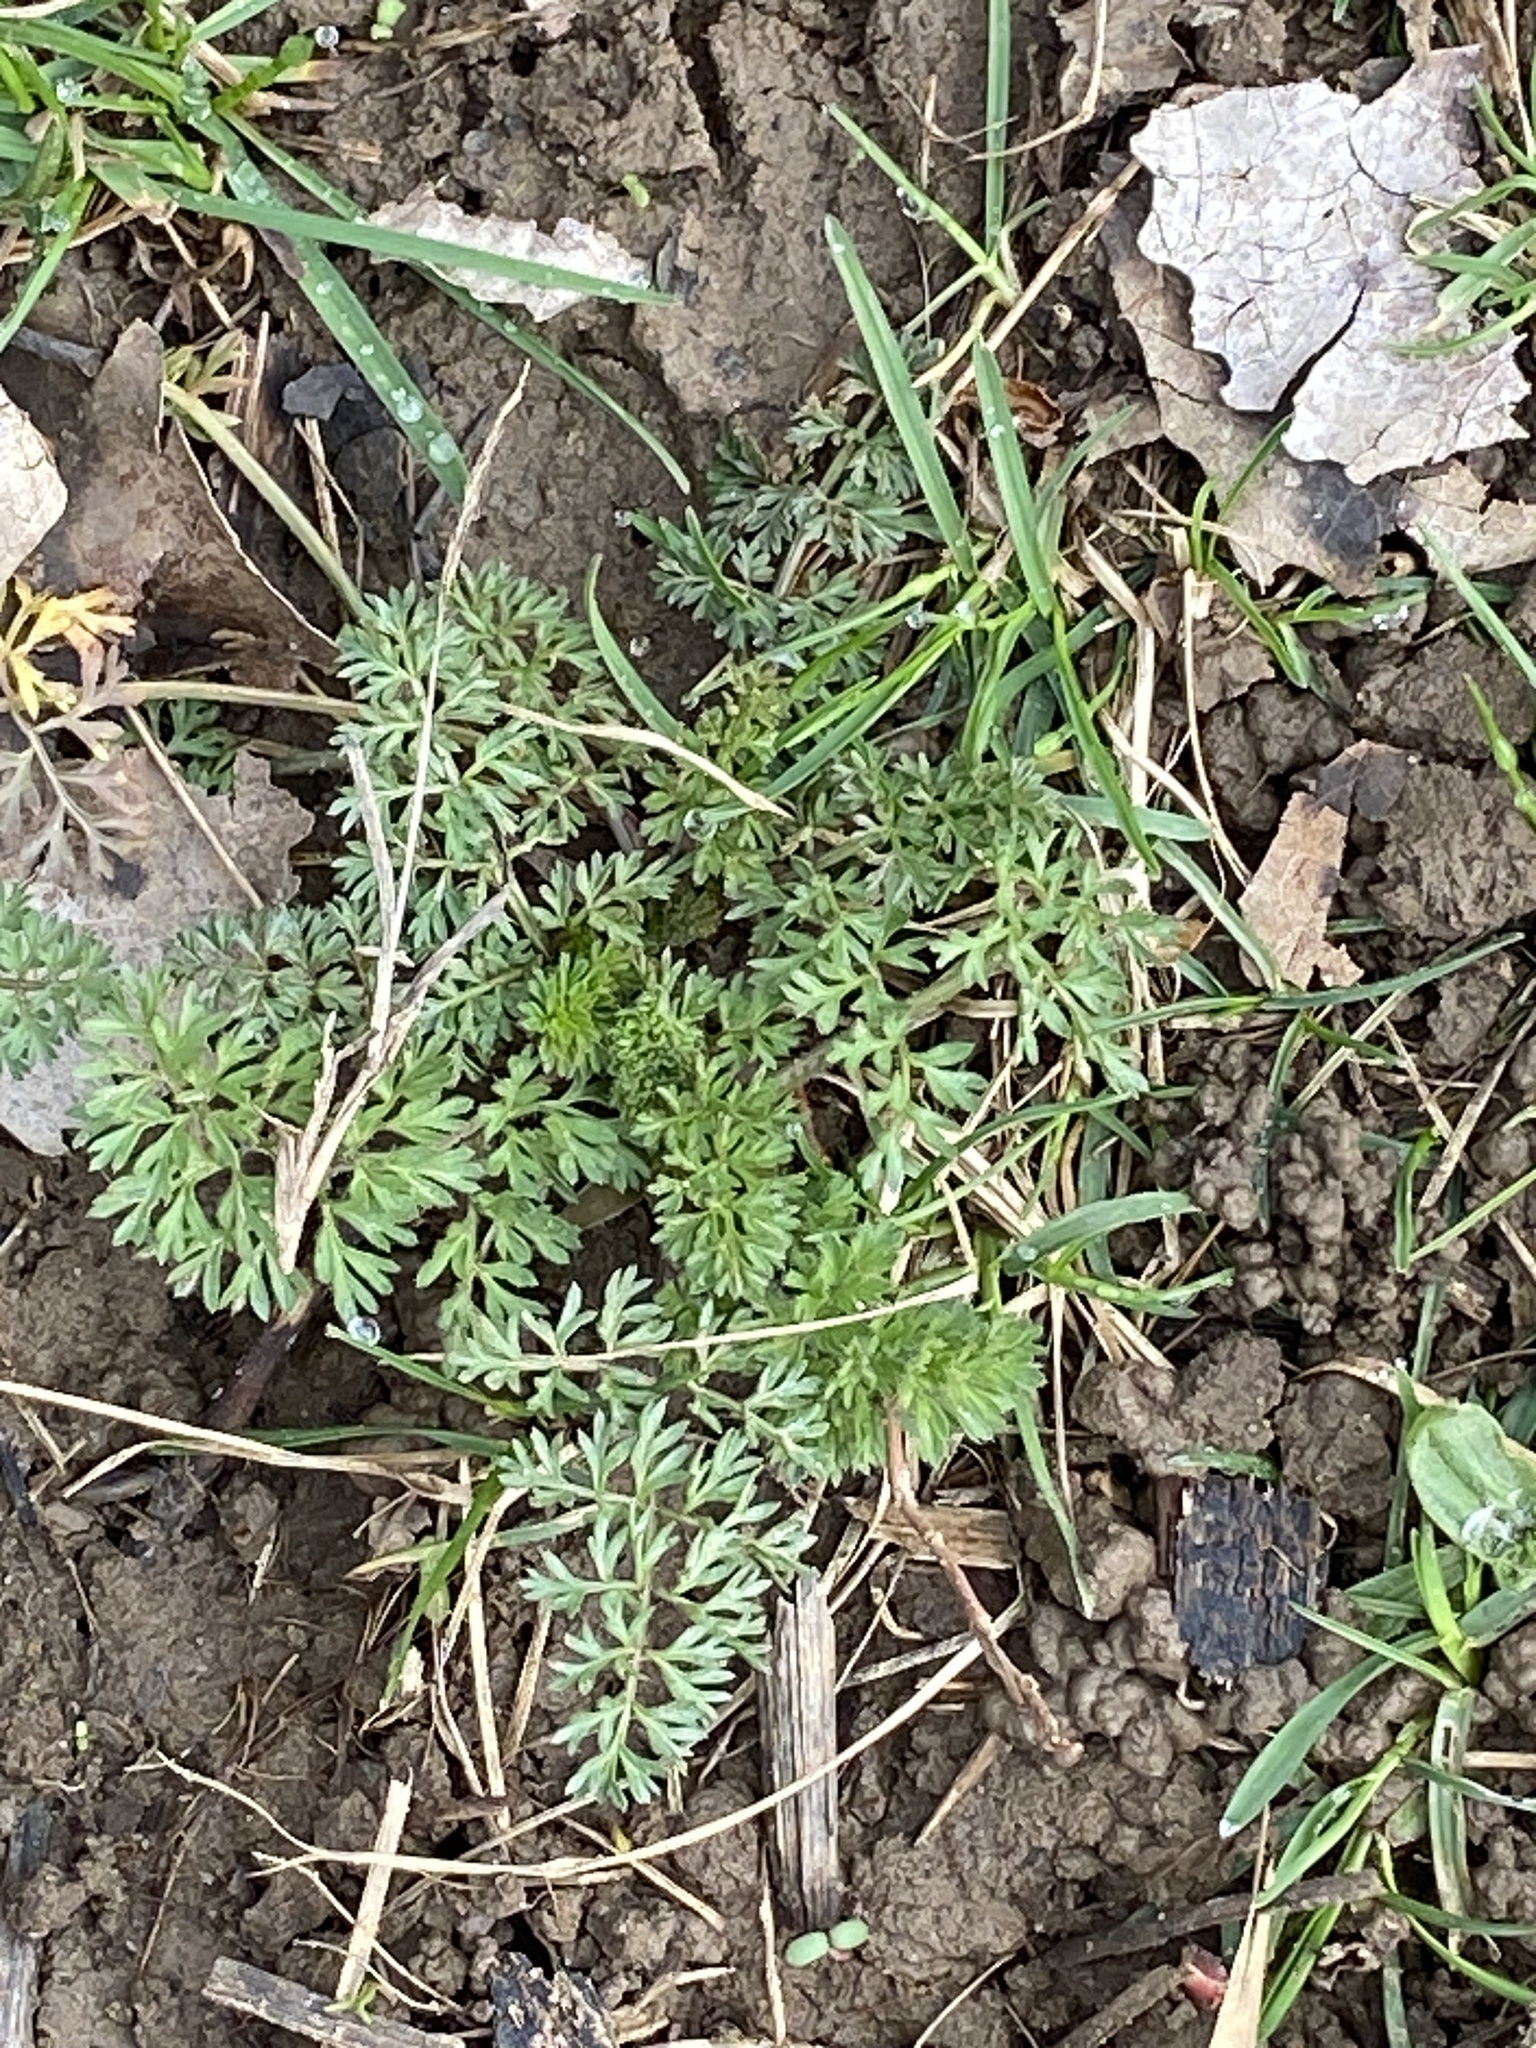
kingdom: Plantae
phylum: Tracheophyta
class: Magnoliopsida
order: Apiales
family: Apiaceae
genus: Daucus
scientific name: Daucus carota
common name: Wild carrot
